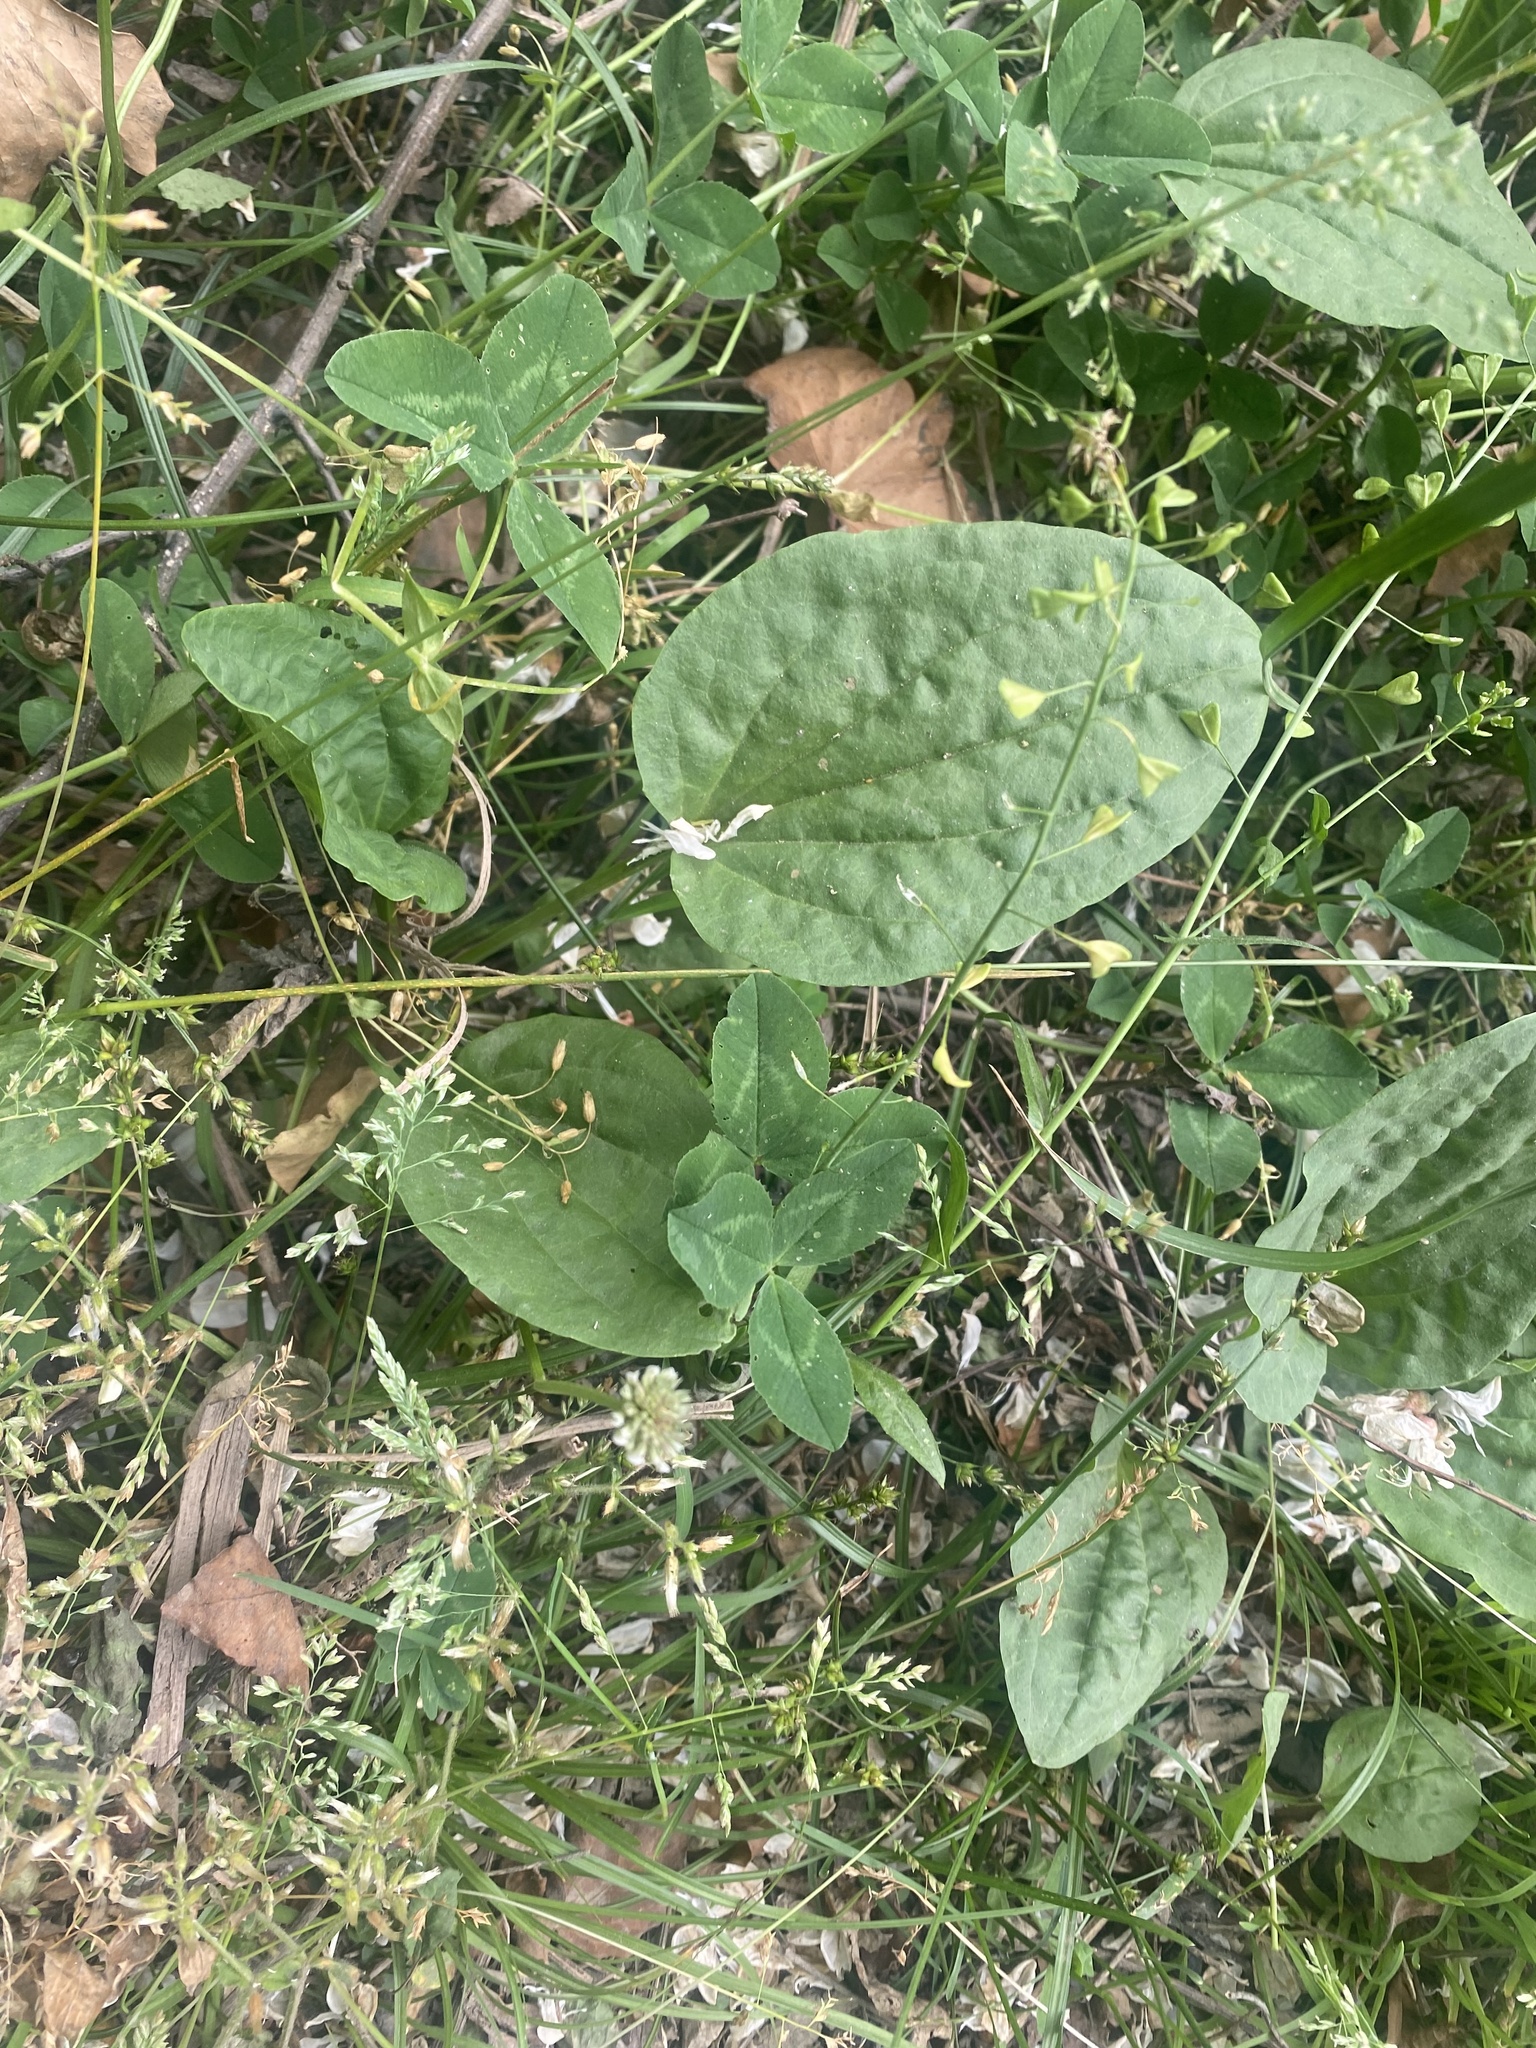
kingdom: Plantae
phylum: Tracheophyta
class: Magnoliopsida
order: Lamiales
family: Plantaginaceae
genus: Plantago
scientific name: Plantago major
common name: Common plantain
